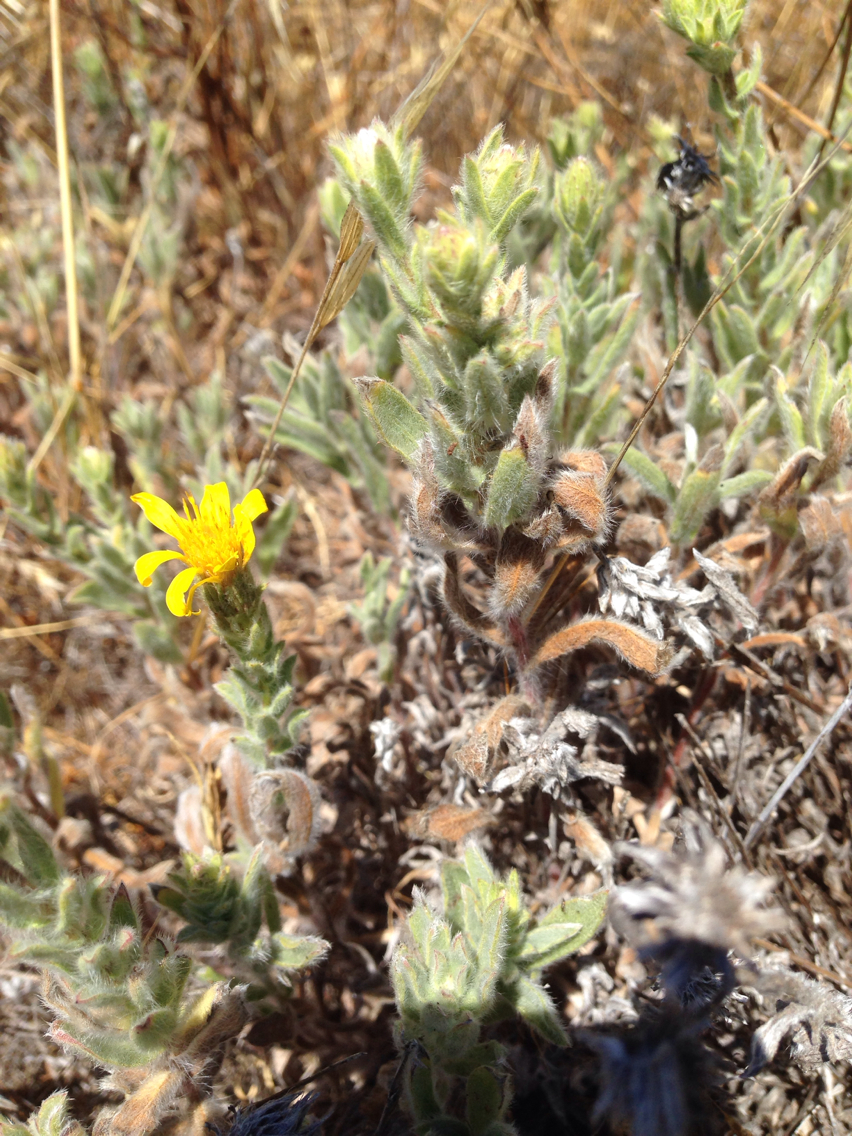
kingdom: Plantae
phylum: Tracheophyta
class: Magnoliopsida
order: Asterales
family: Asteraceae
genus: Heterotheca
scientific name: Heterotheca sessiliflora
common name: Sessile-flower golden-aster
